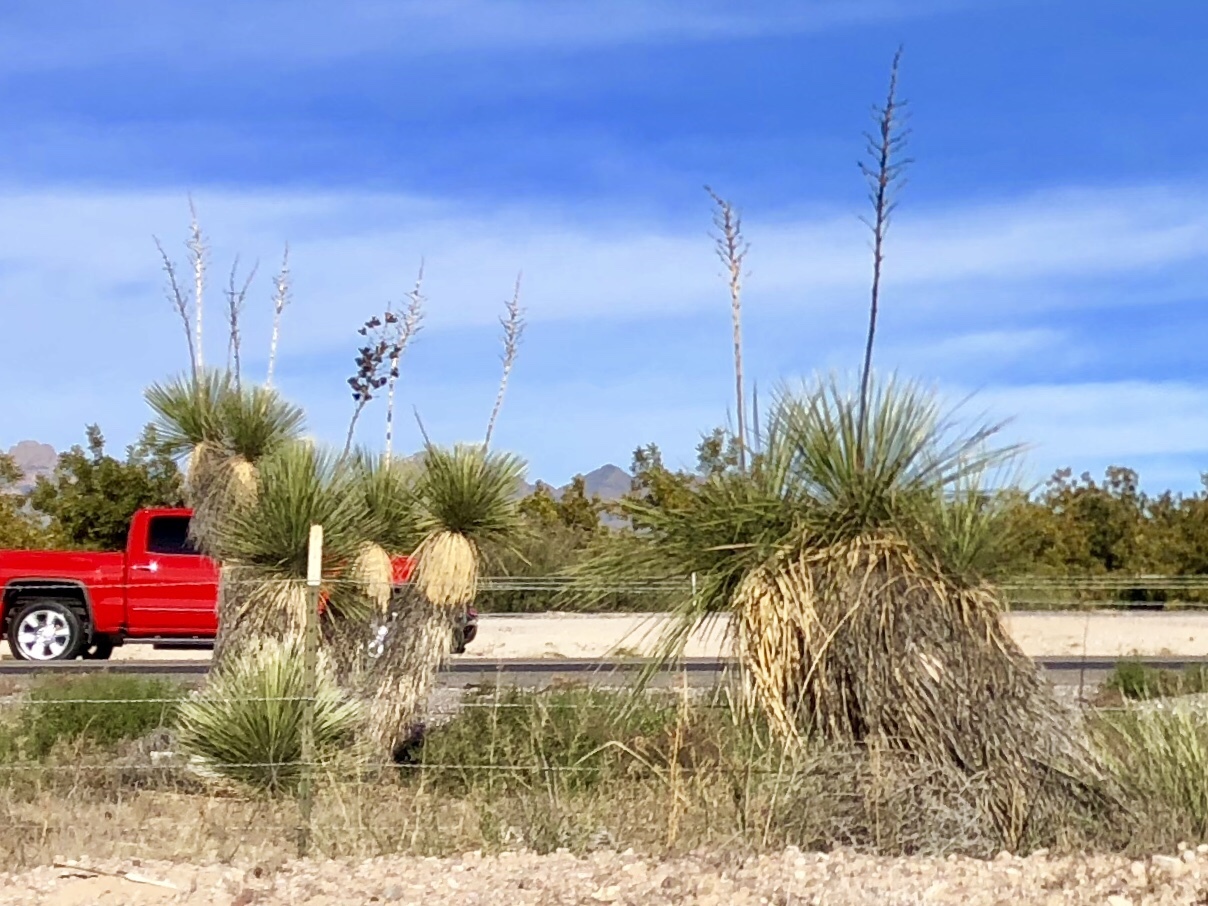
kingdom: Plantae
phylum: Tracheophyta
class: Liliopsida
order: Asparagales
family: Asparagaceae
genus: Yucca
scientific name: Yucca elata
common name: Palmella
